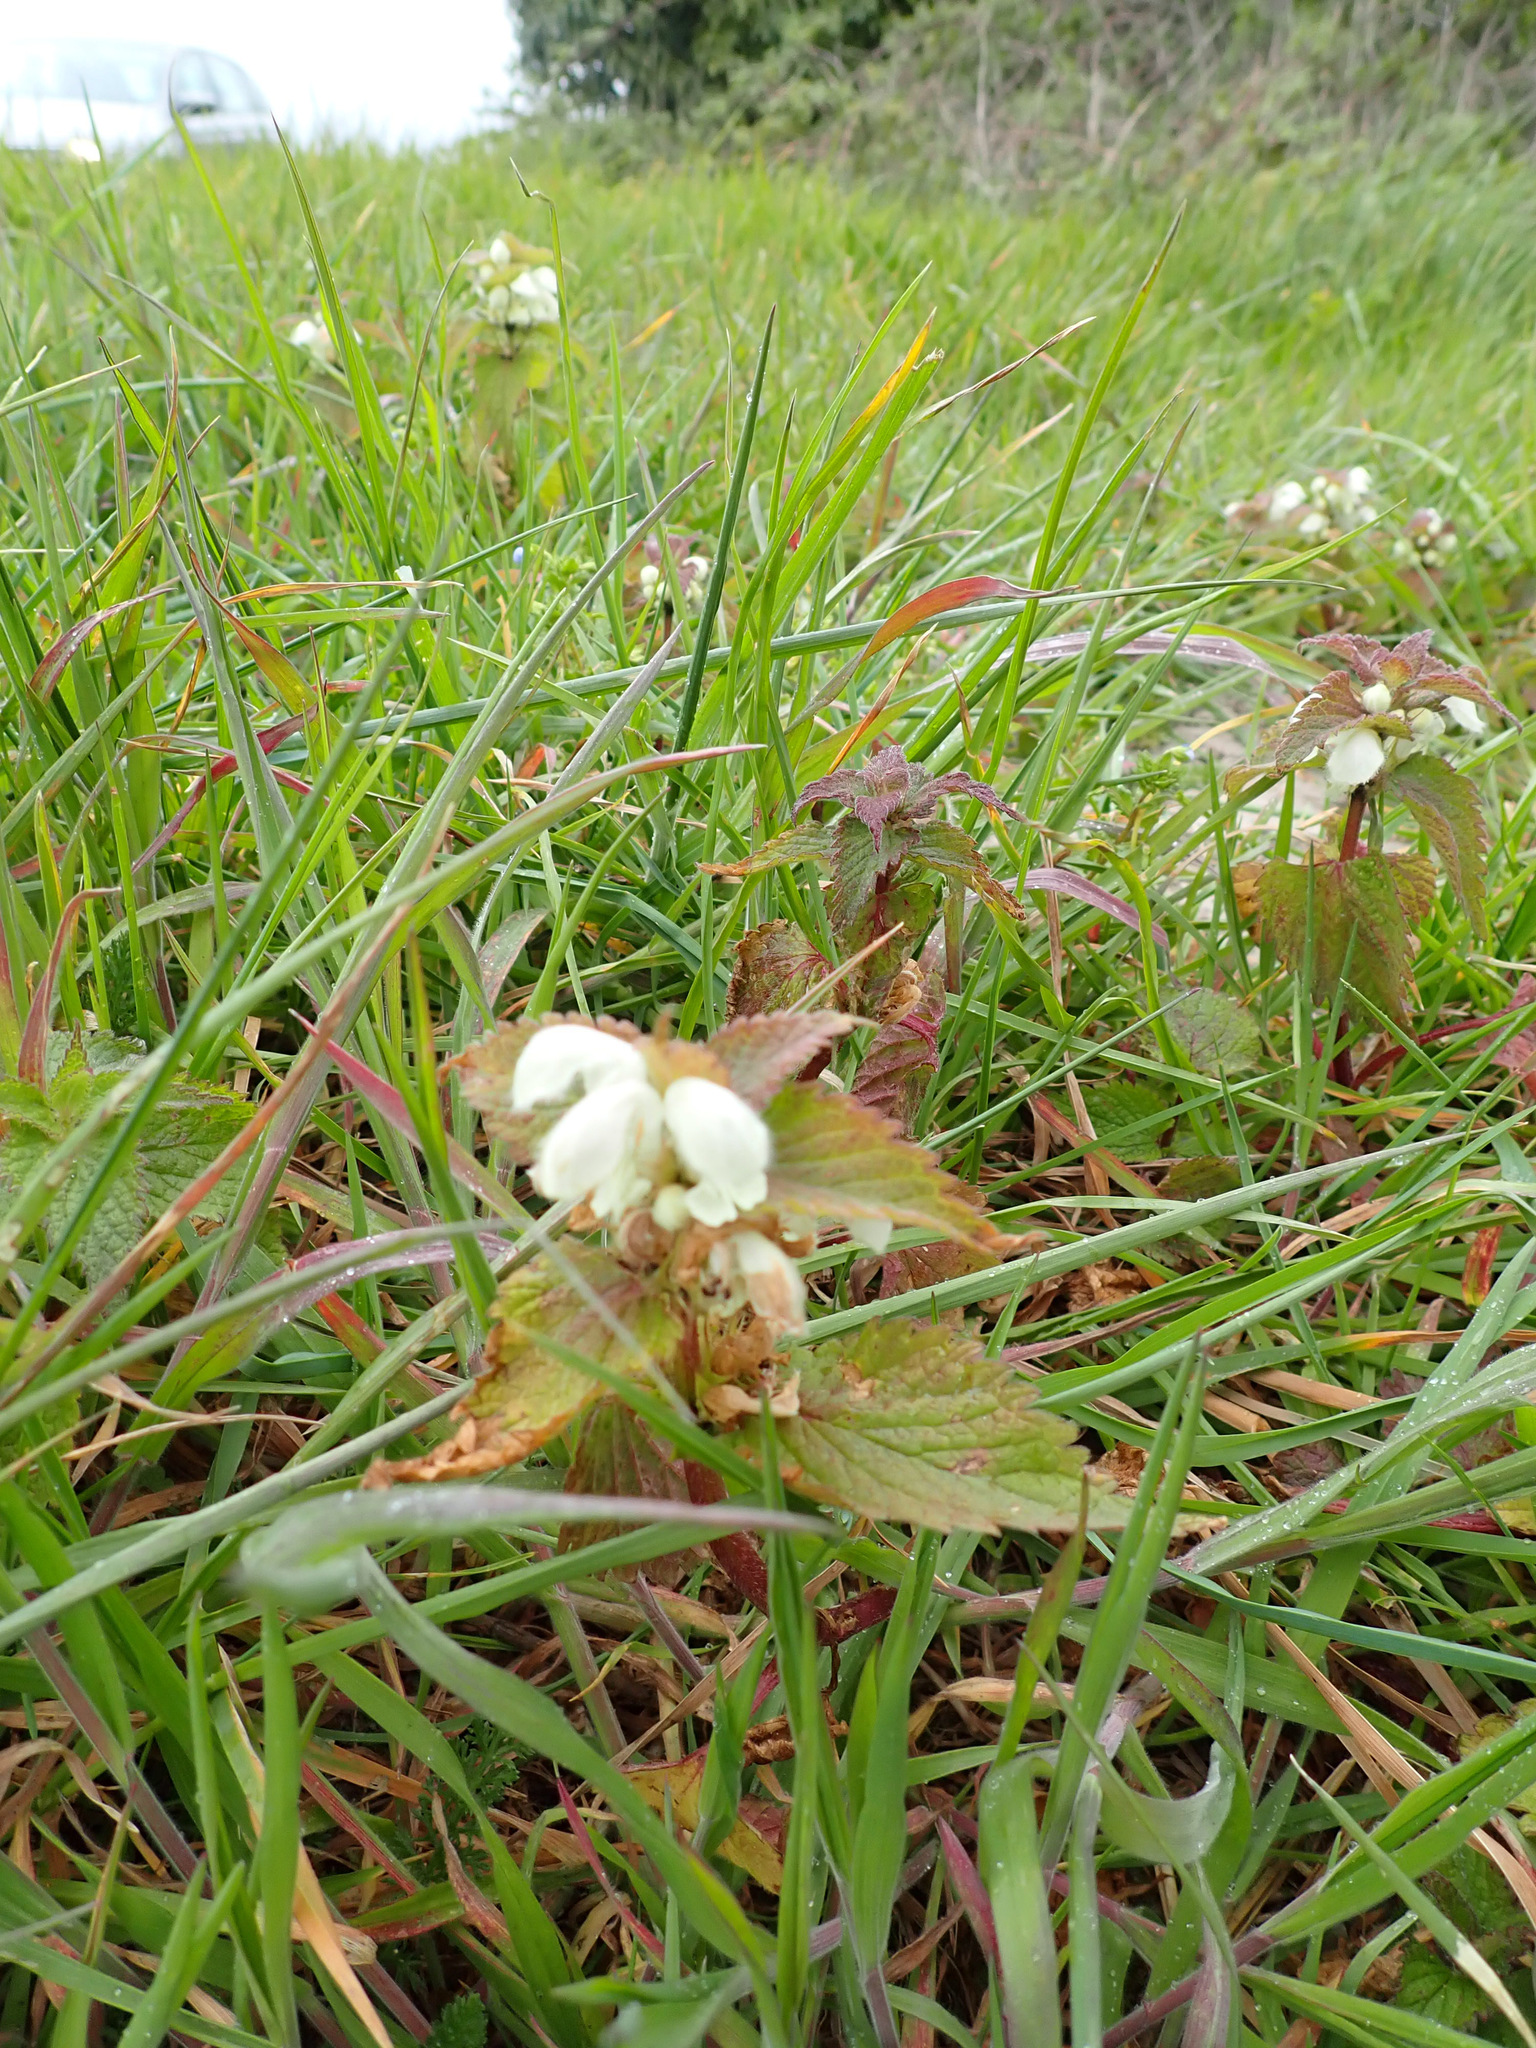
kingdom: Plantae
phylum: Tracheophyta
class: Magnoliopsida
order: Lamiales
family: Lamiaceae
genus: Lamium
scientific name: Lamium album
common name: White dead-nettle
